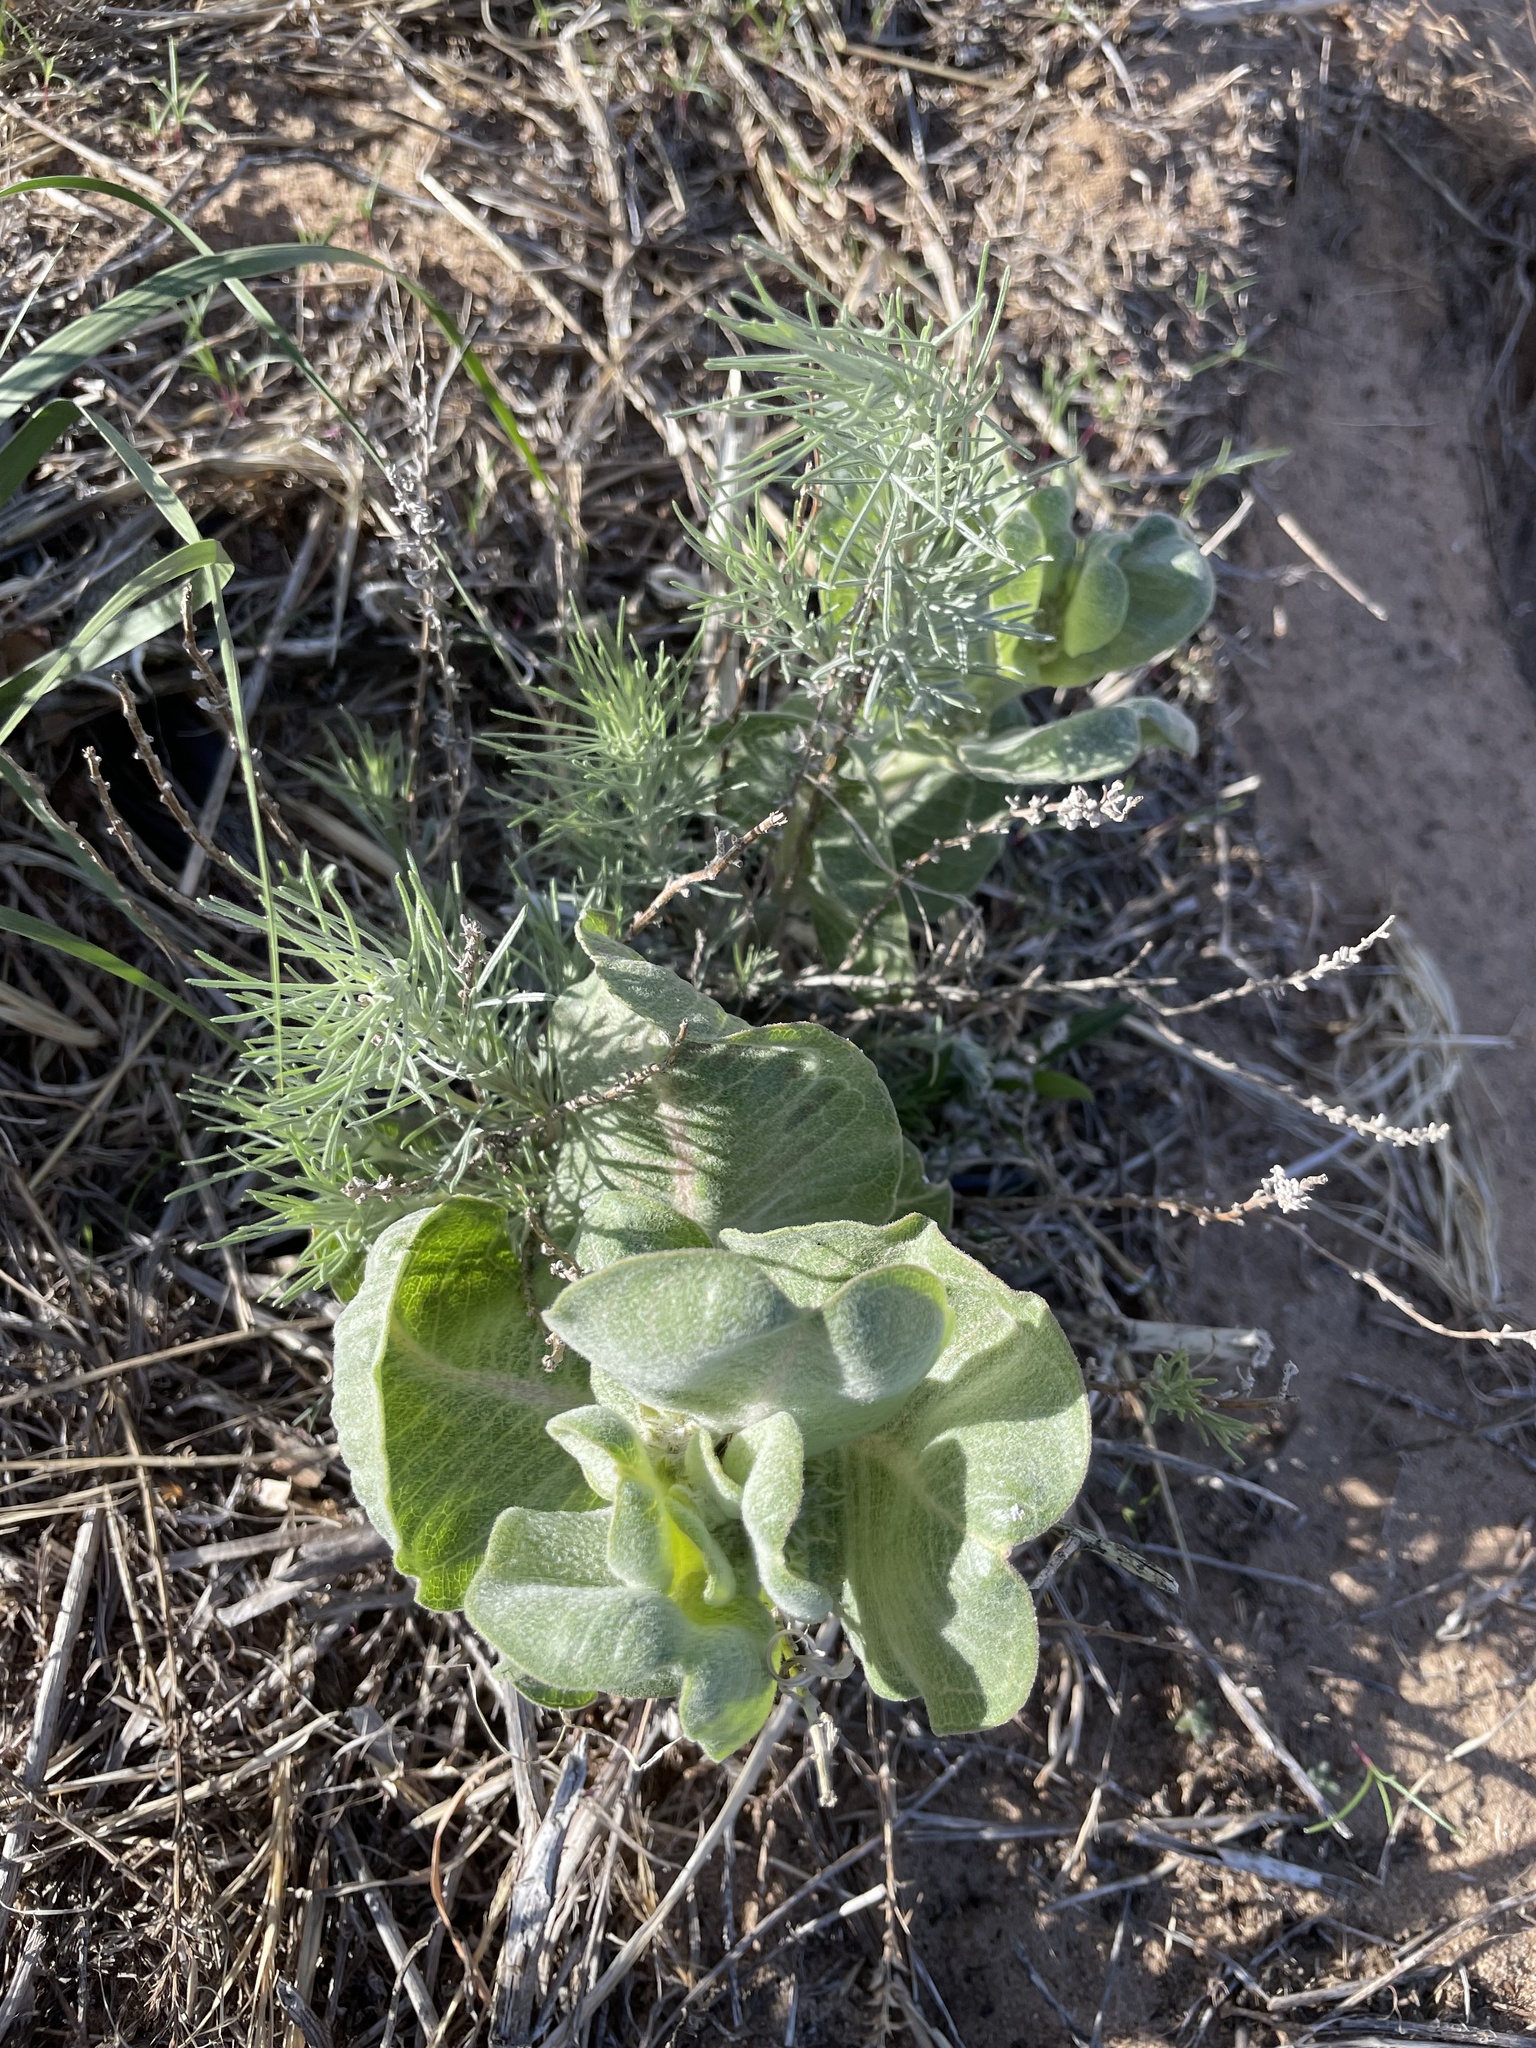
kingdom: Plantae
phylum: Tracheophyta
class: Magnoliopsida
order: Gentianales
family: Apocynaceae
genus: Asclepias
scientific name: Asclepias arenaria
